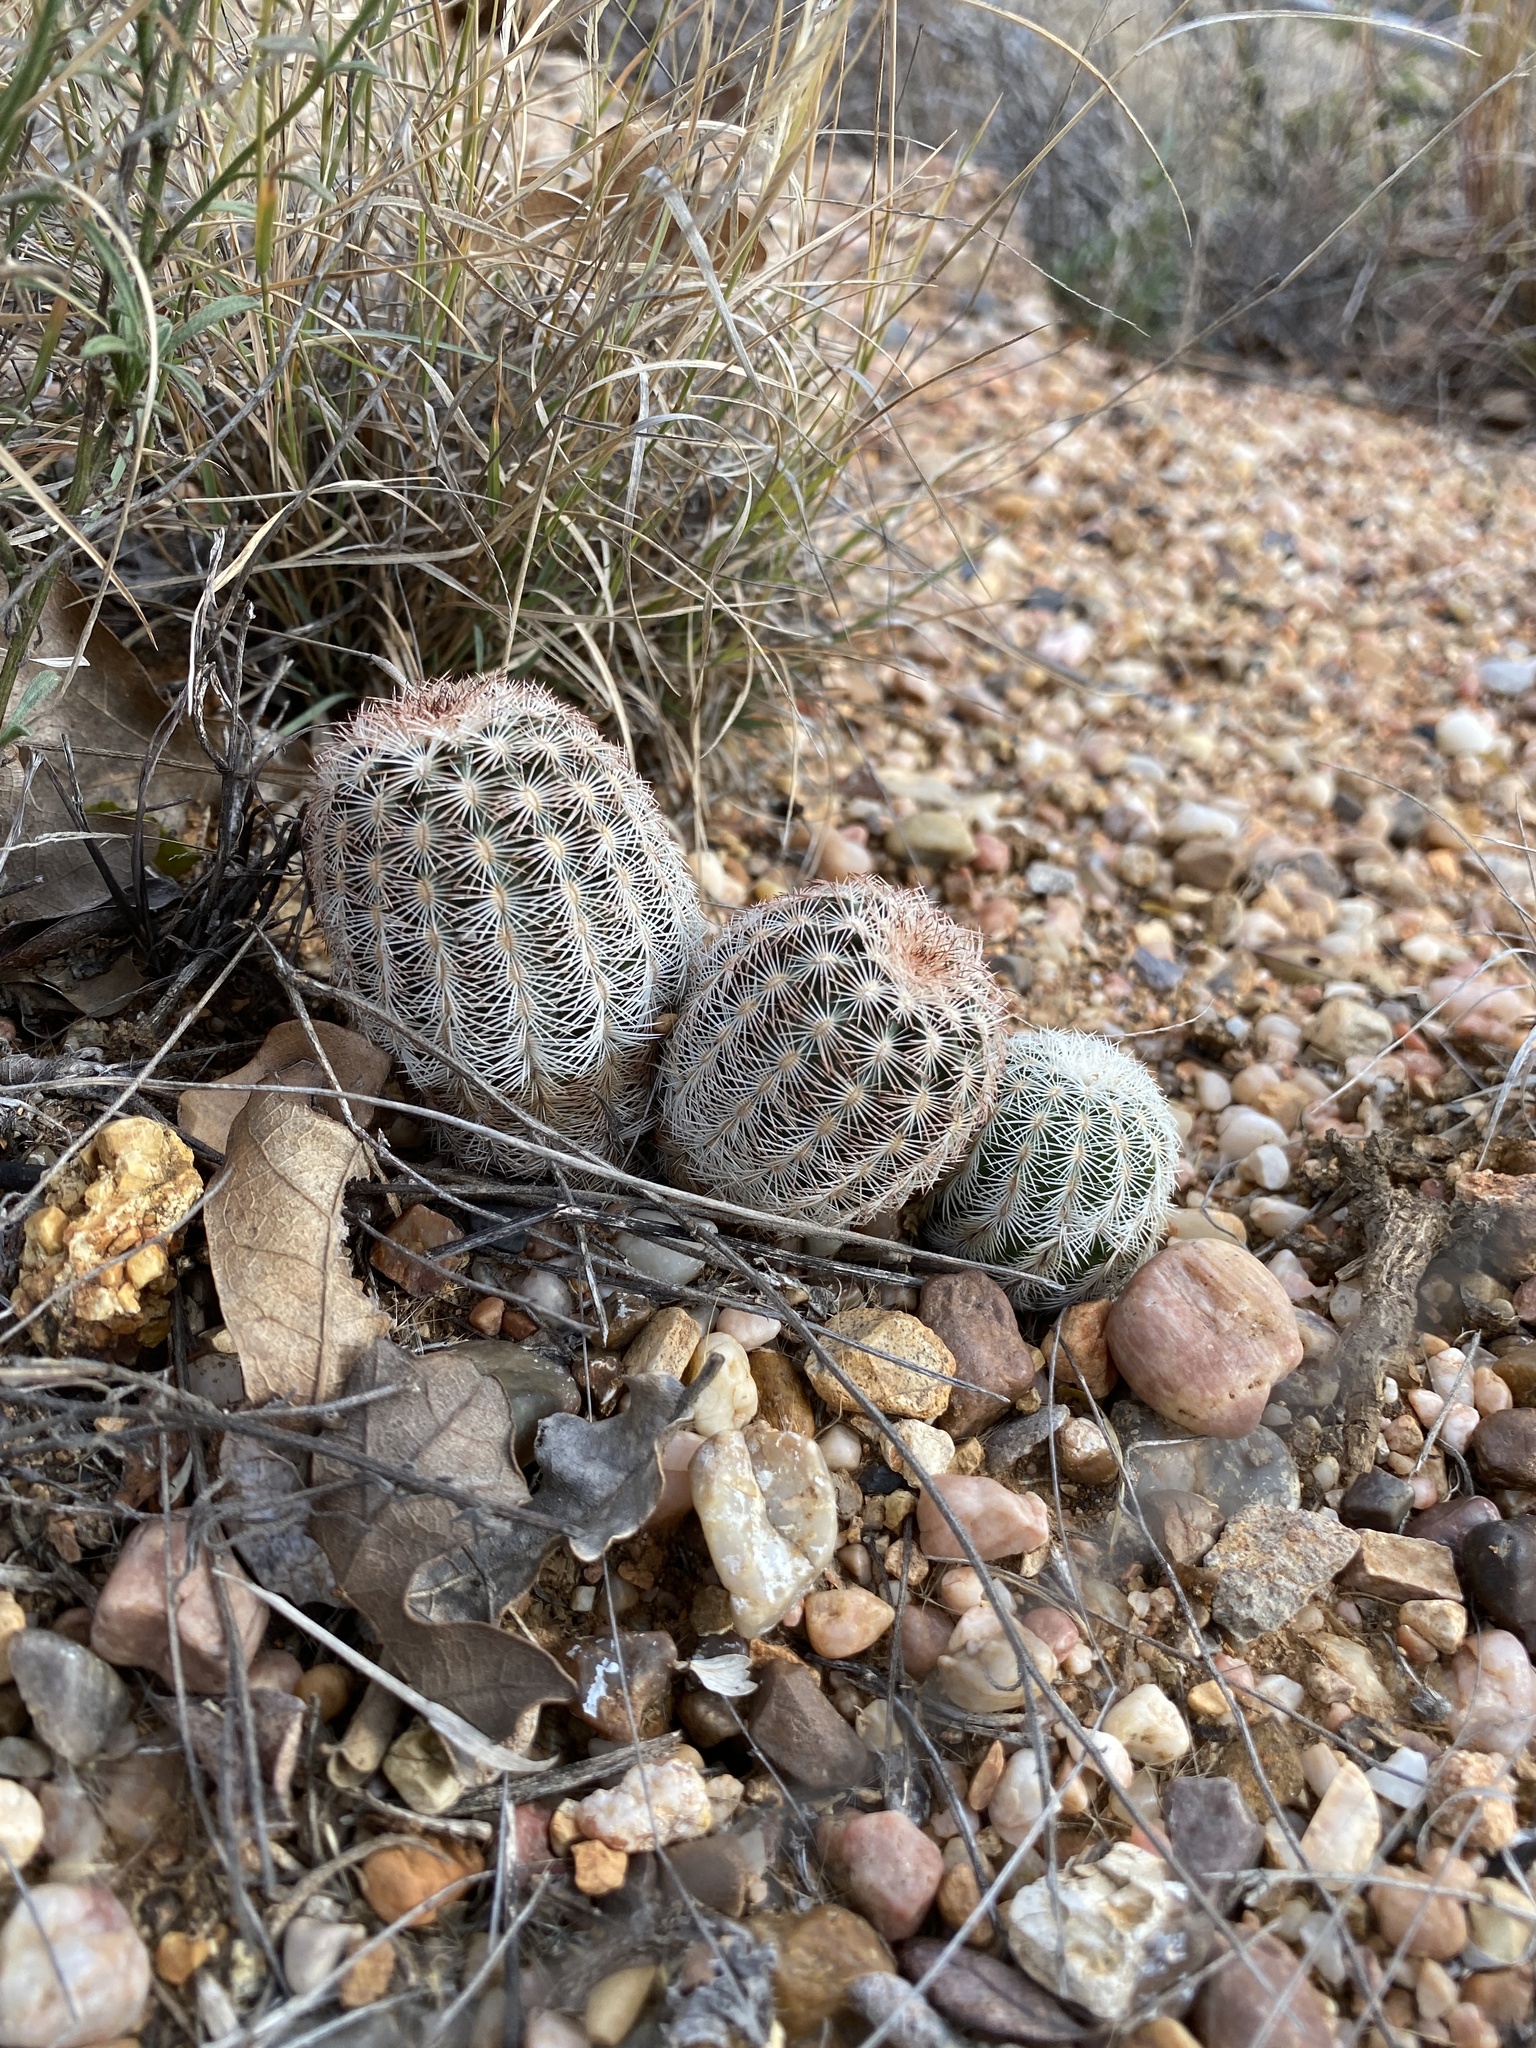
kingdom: Plantae
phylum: Tracheophyta
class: Magnoliopsida
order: Caryophyllales
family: Cactaceae
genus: Echinocereus
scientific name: Echinocereus reichenbachii
